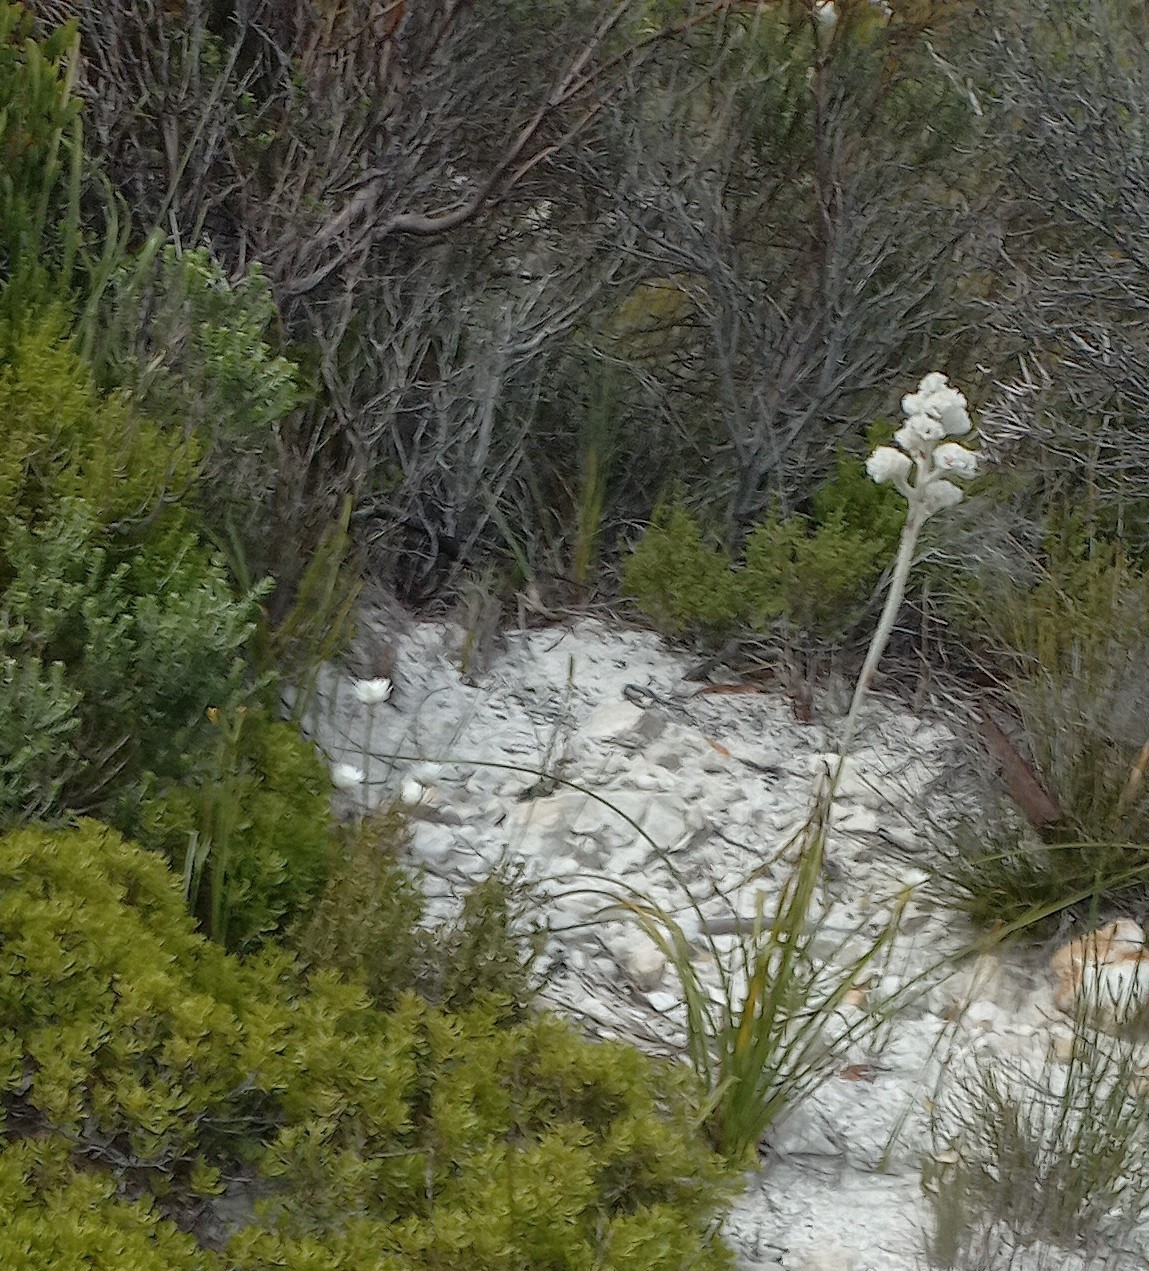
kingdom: Plantae
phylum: Tracheophyta
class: Liliopsida
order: Asparagales
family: Lanariaceae
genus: Lanaria
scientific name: Lanaria lanata
